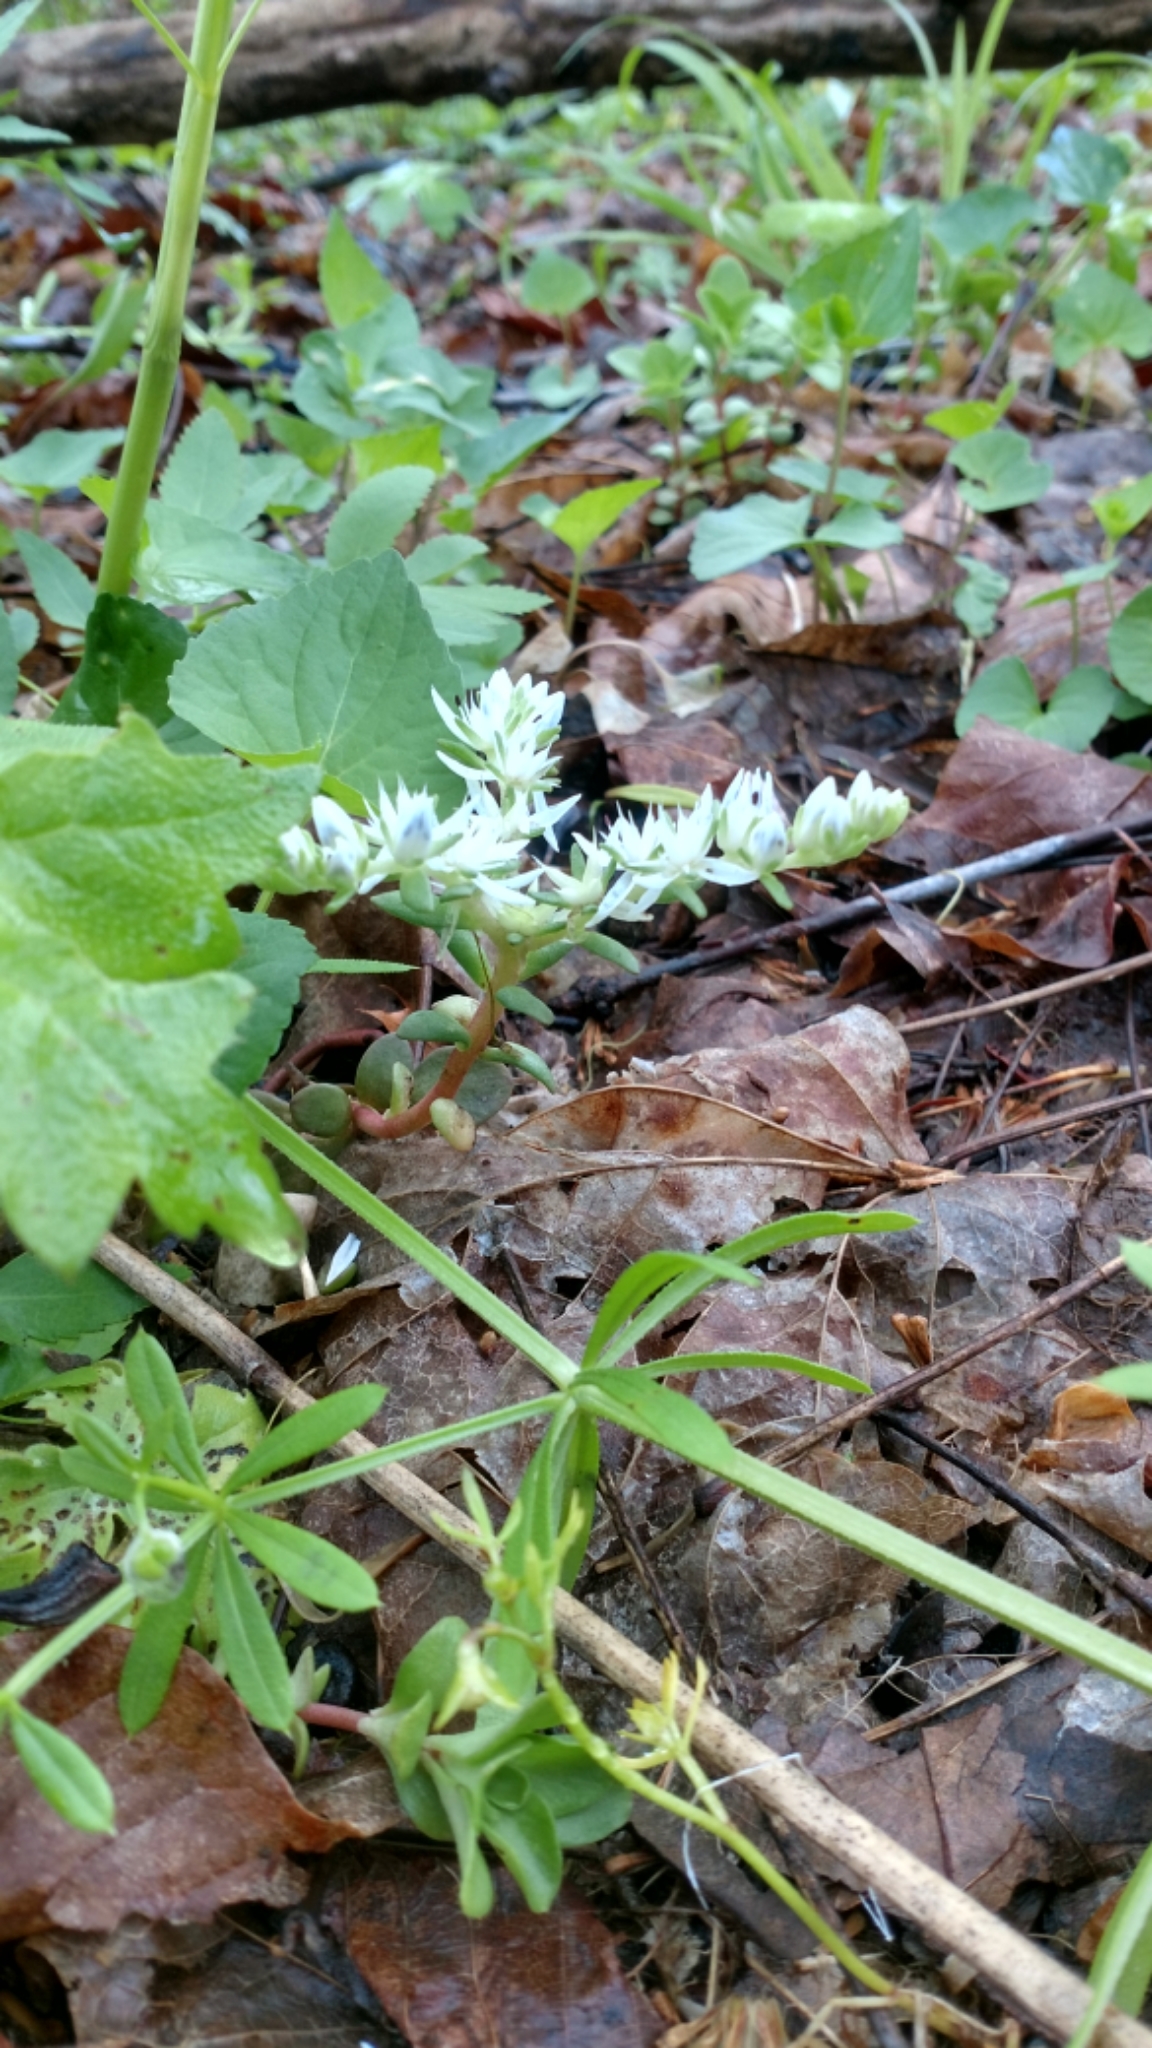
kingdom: Plantae
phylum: Tracheophyta
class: Magnoliopsida
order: Saxifragales
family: Crassulaceae
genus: Sedum
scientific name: Sedum ternatum
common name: Wild stonecrop
